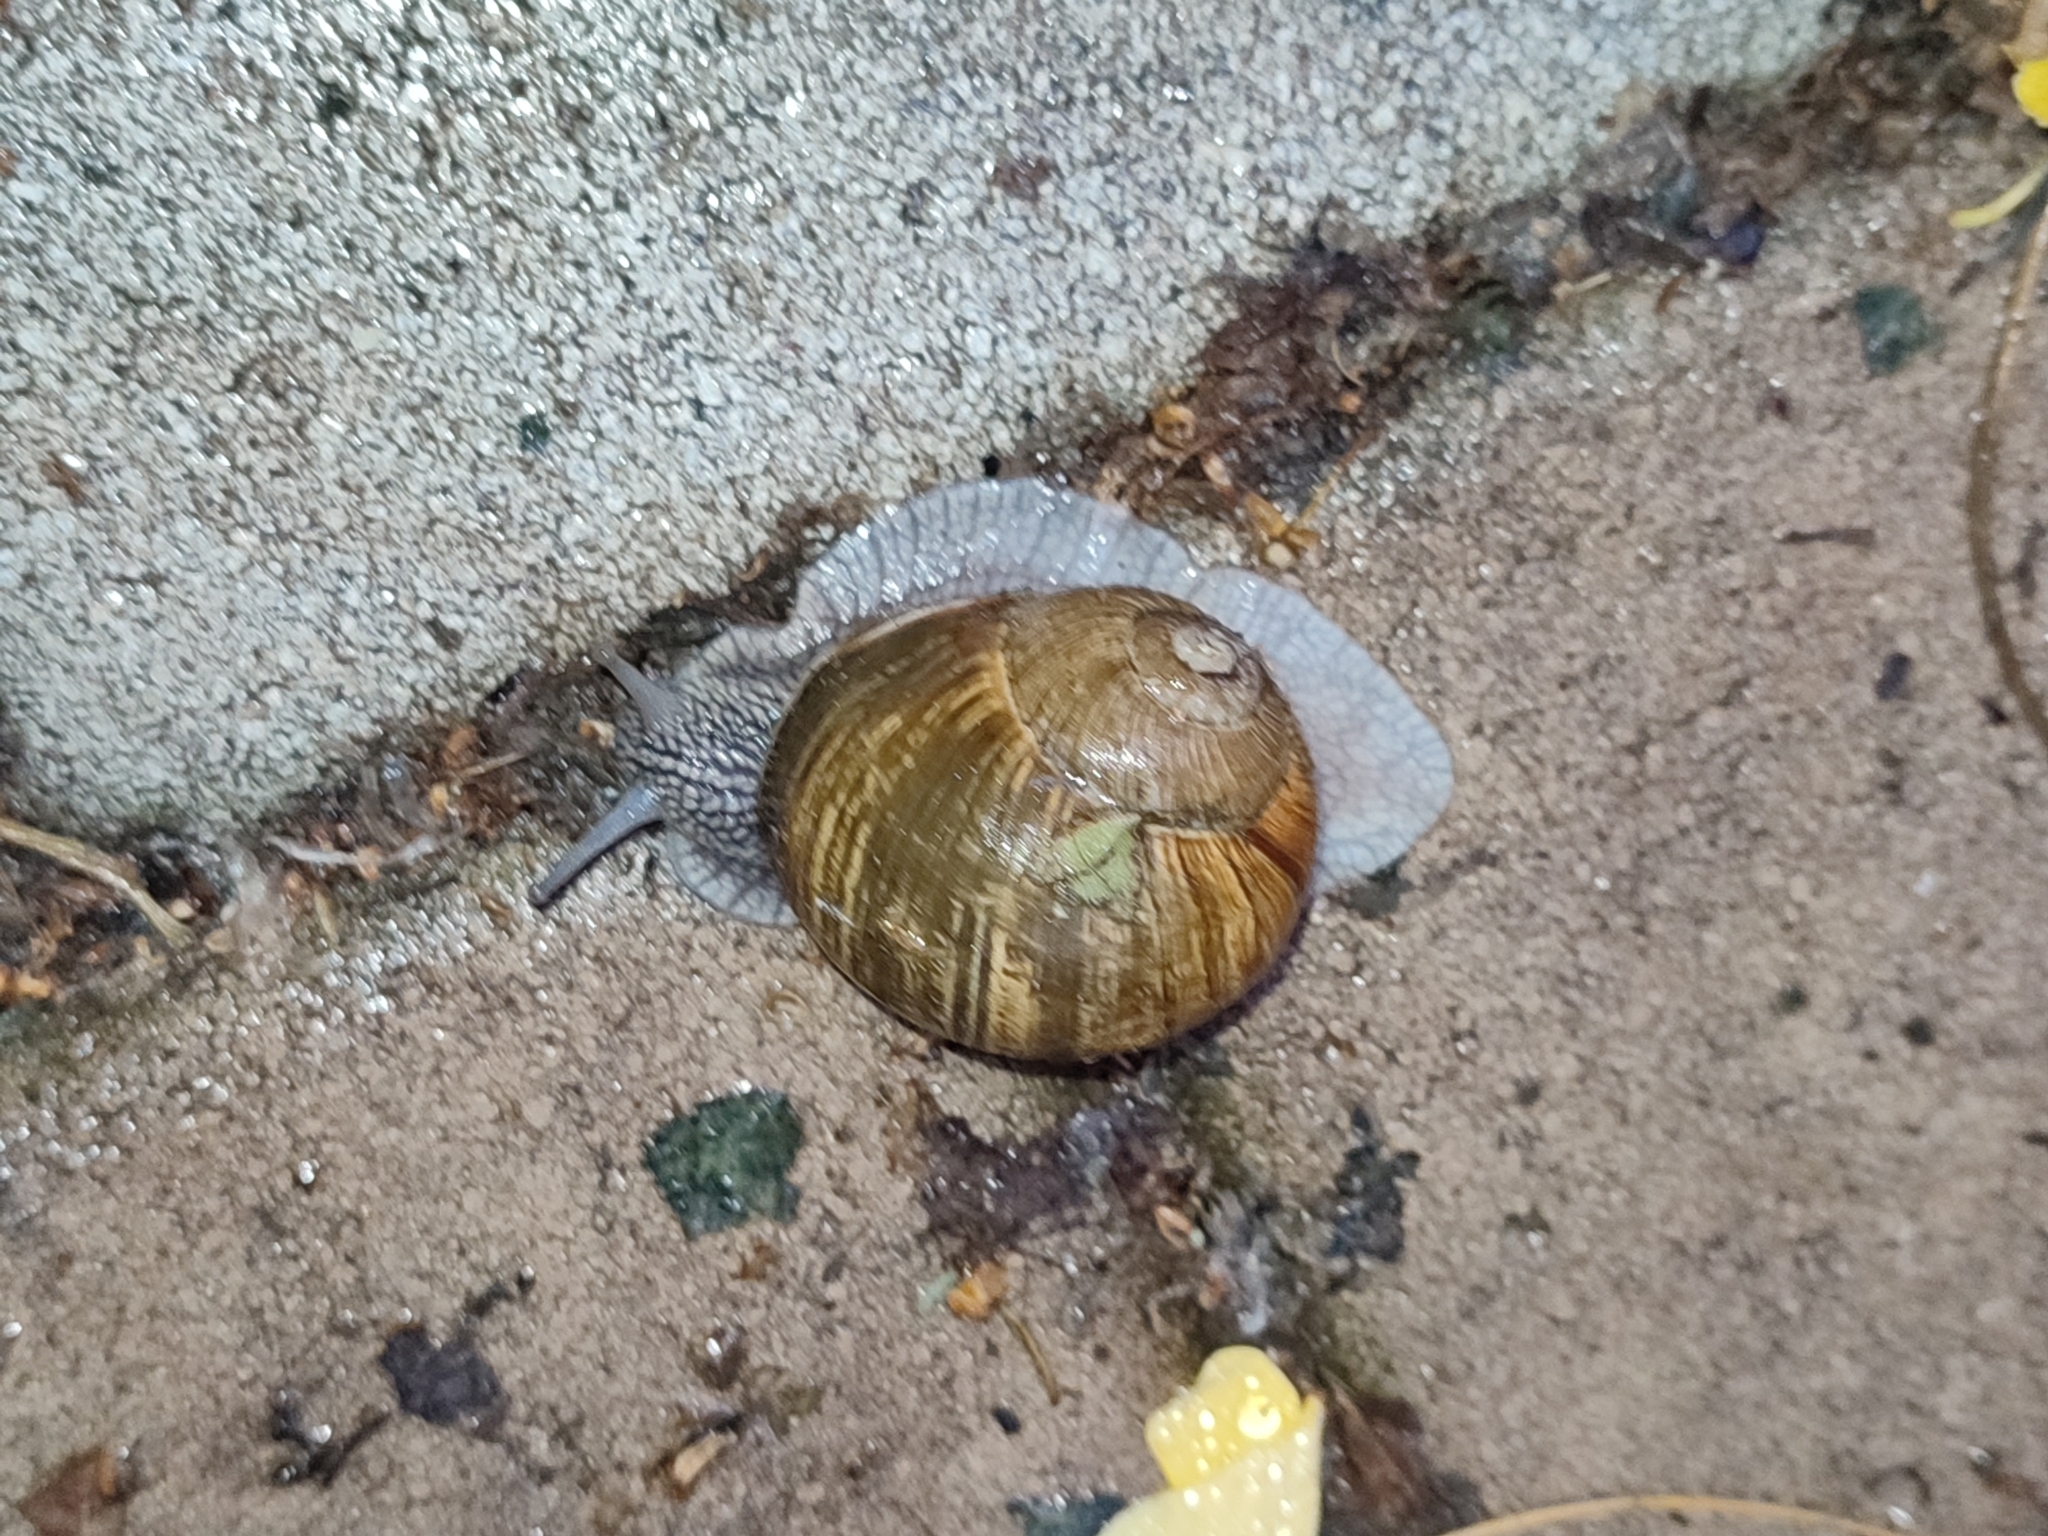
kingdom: Animalia
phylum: Mollusca
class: Gastropoda
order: Stylommatophora
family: Helicidae
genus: Helix
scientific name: Helix pomatia
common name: Roman snail
